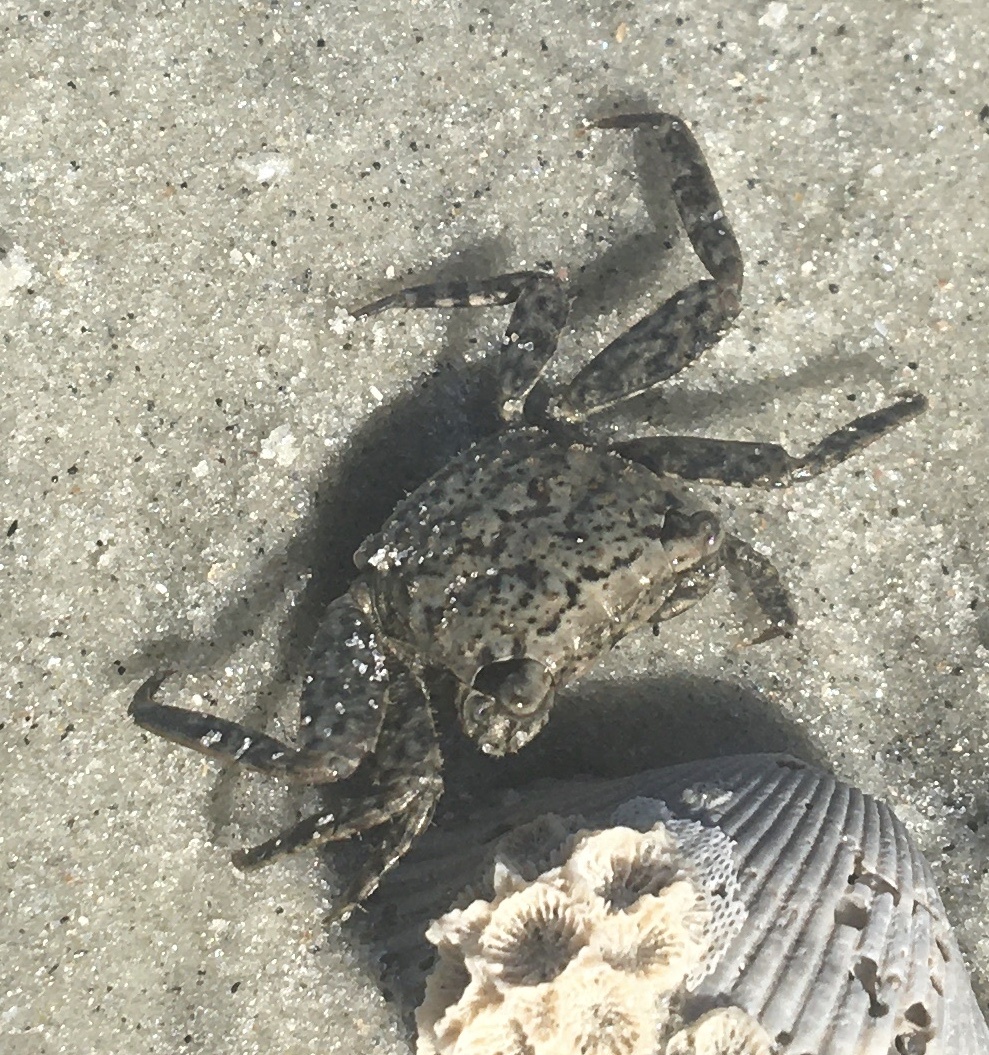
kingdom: Animalia
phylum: Arthropoda
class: Malacostraca
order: Decapoda
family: Sesarmidae
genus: Armases
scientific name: Armases cinereum
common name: Squareback marsh crab
